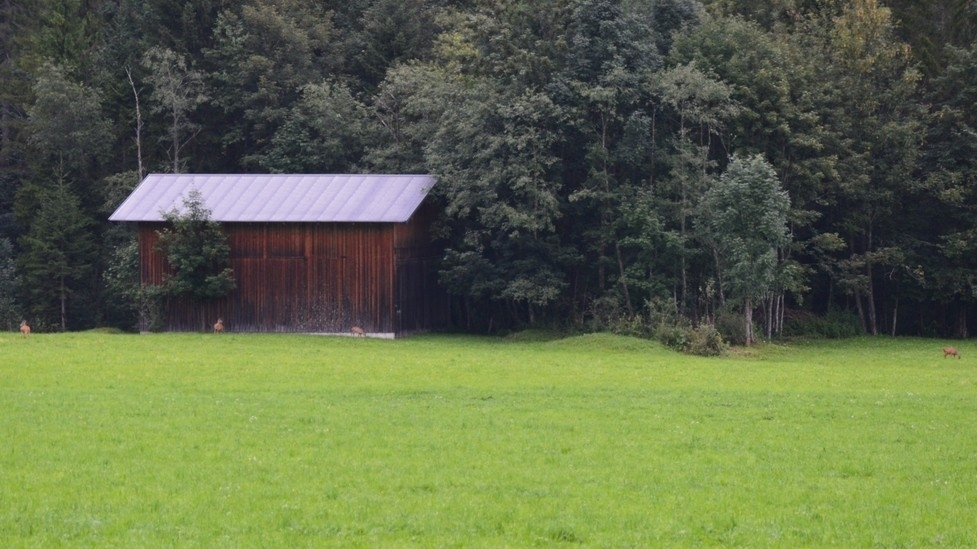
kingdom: Animalia
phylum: Chordata
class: Mammalia
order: Artiodactyla
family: Cervidae
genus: Capreolus
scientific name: Capreolus capreolus
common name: Western roe deer
